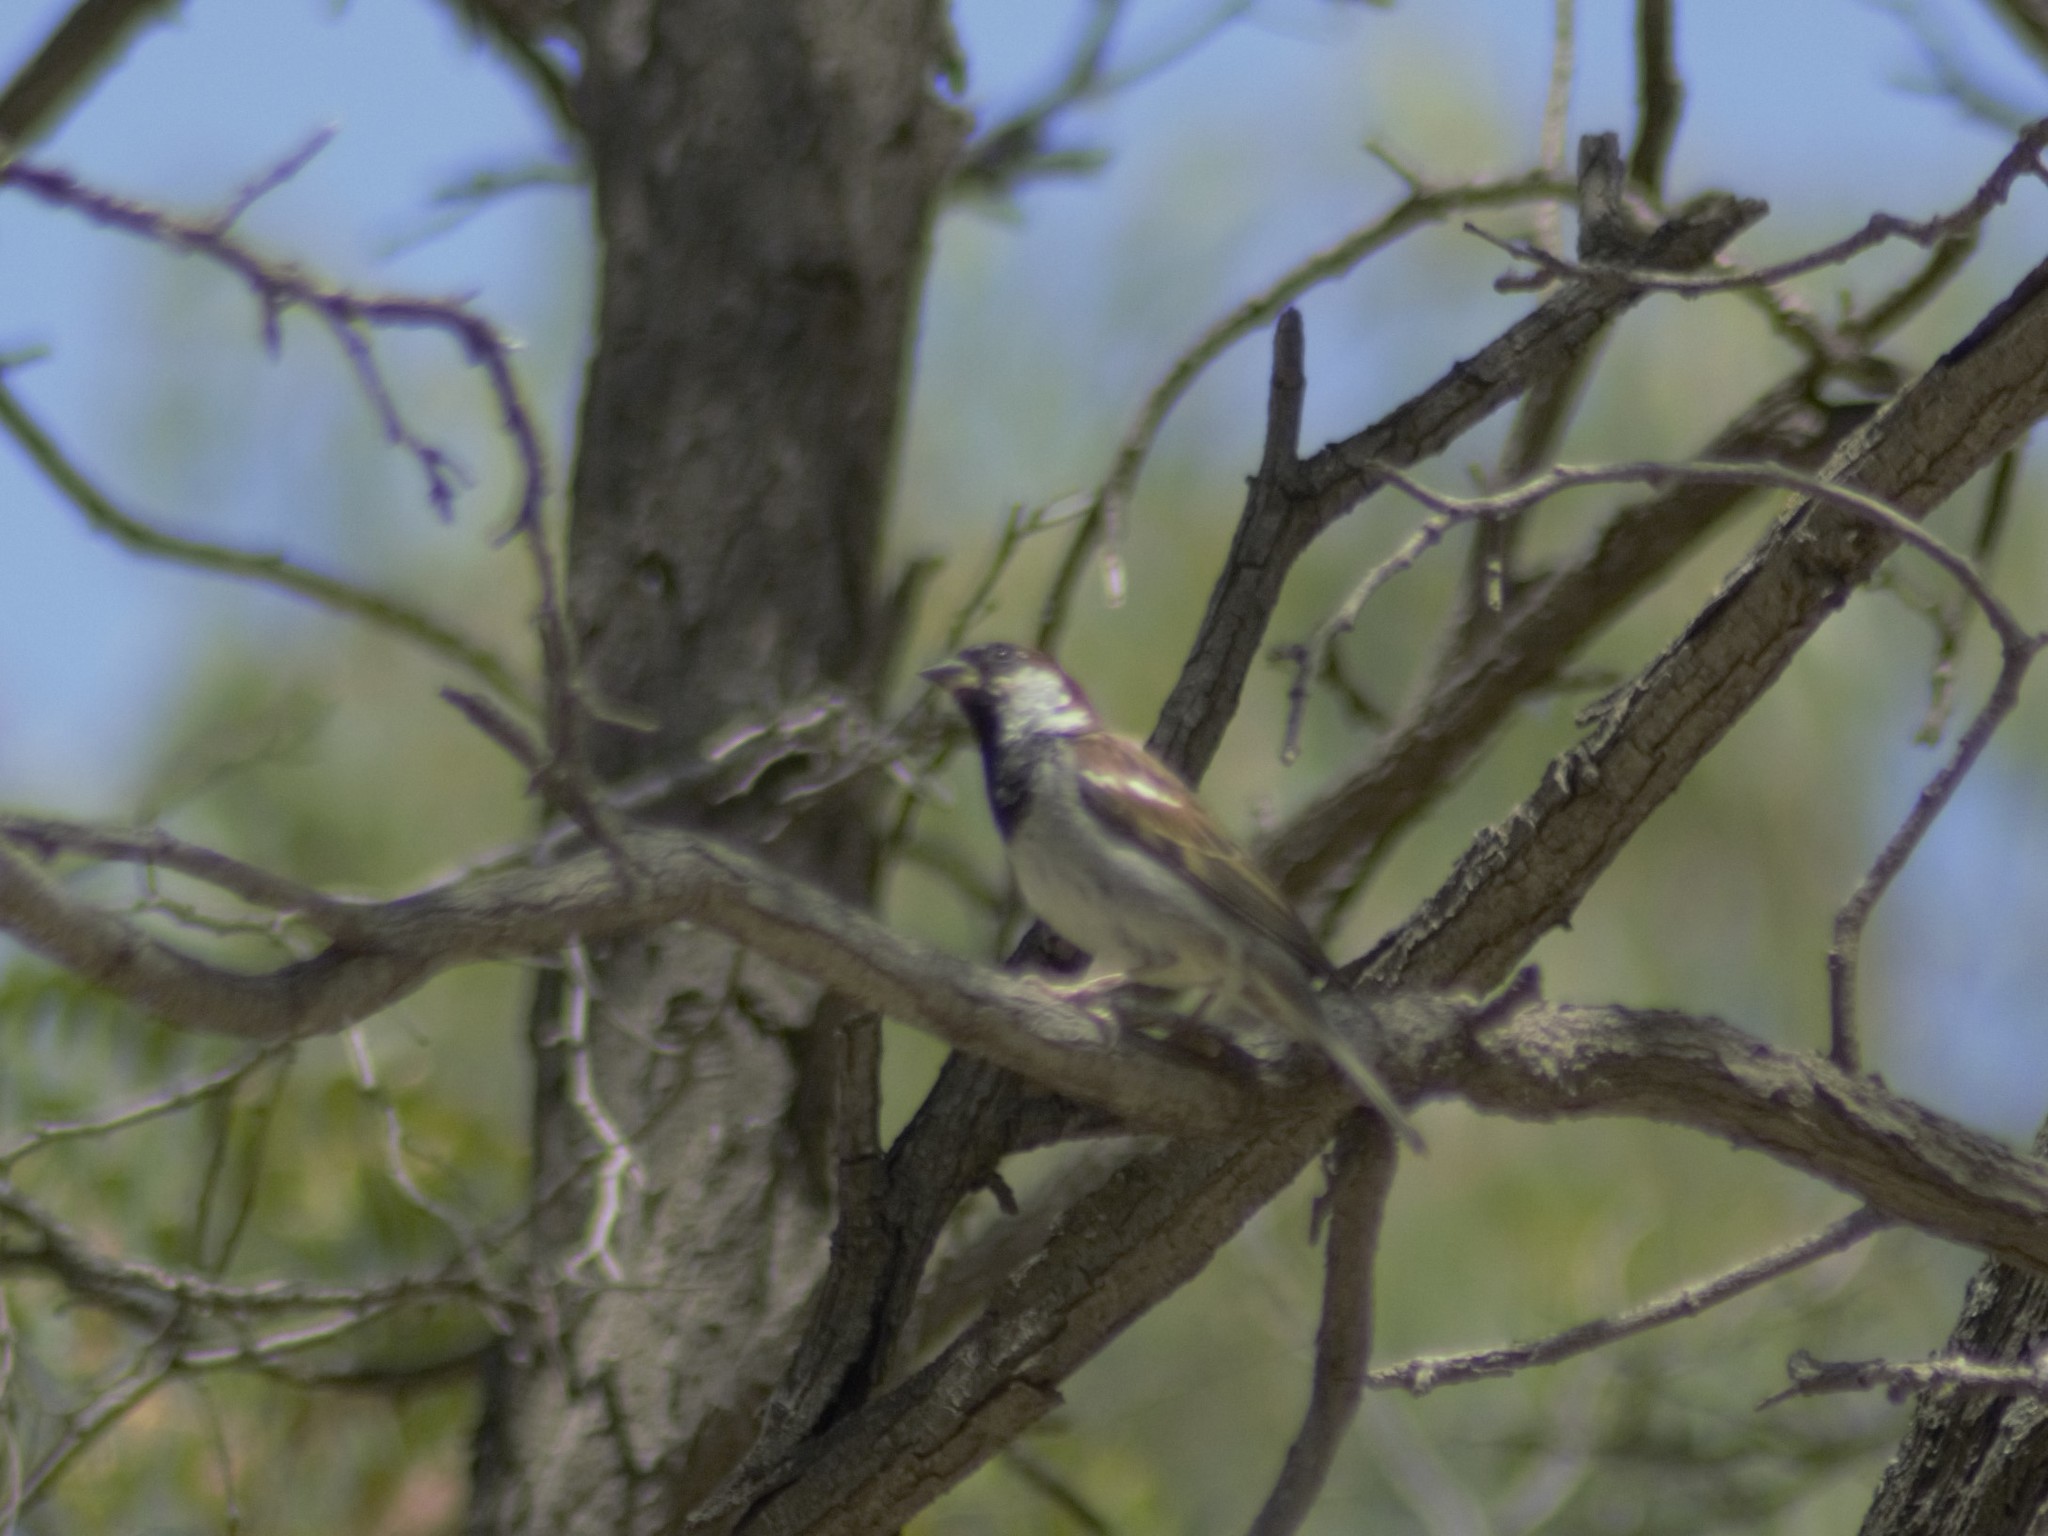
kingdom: Animalia
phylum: Chordata
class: Aves
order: Passeriformes
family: Passeridae
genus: Passer
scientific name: Passer domesticus
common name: House sparrow
